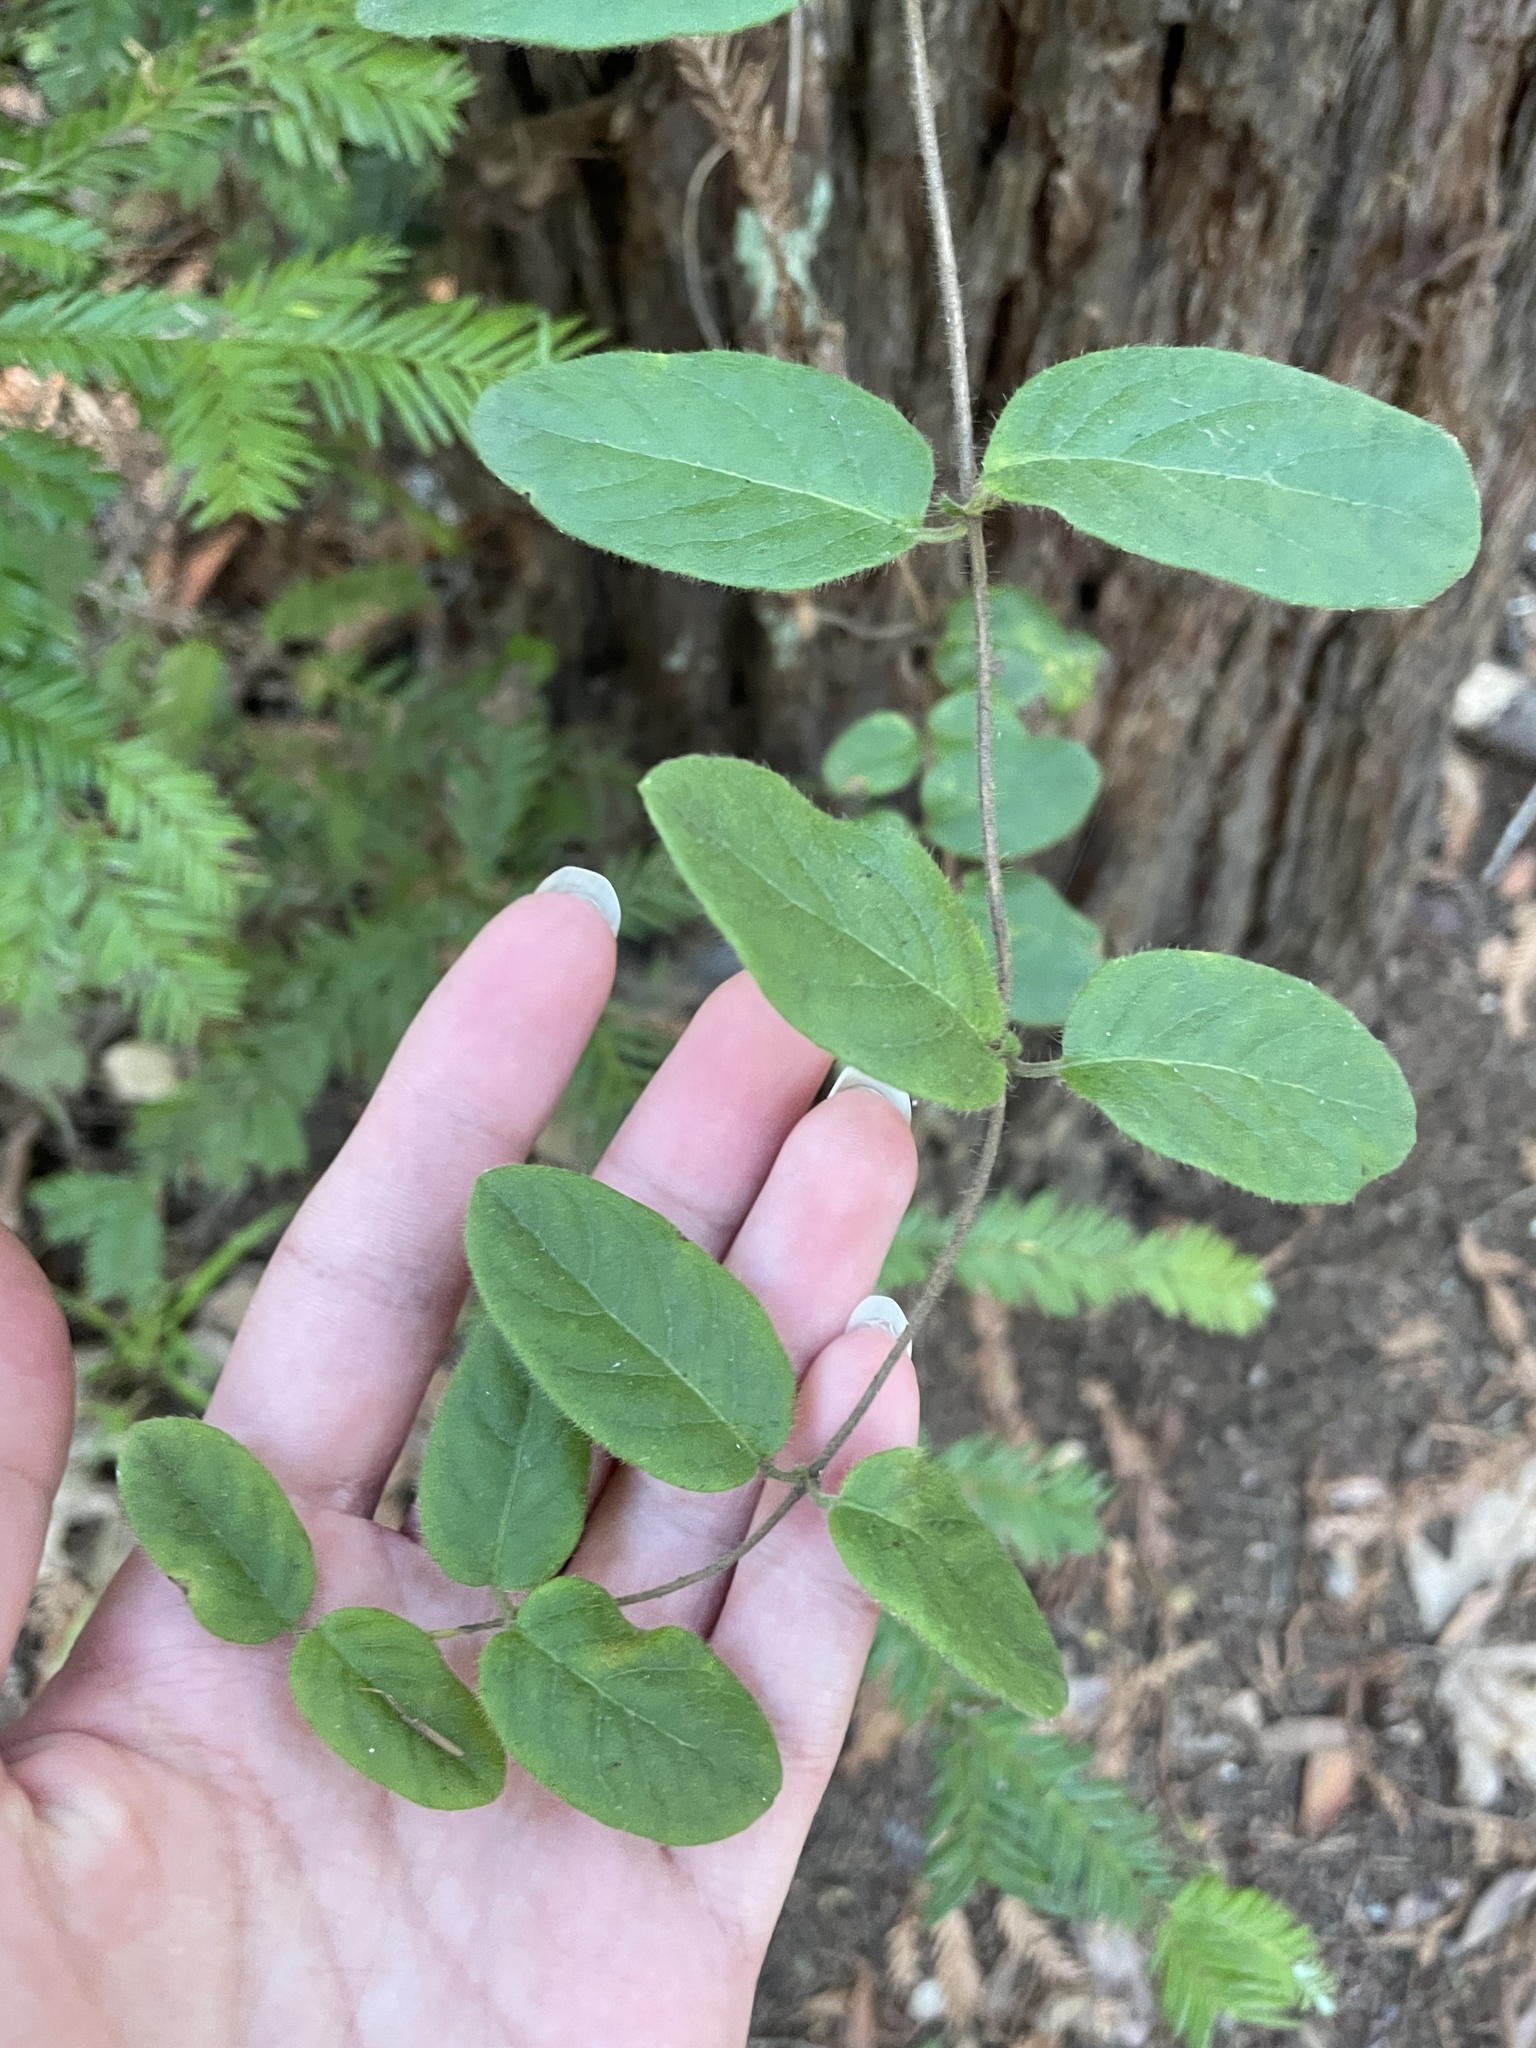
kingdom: Plantae
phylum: Tracheophyta
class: Magnoliopsida
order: Dipsacales
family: Caprifoliaceae
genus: Lonicera
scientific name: Lonicera hispidula
